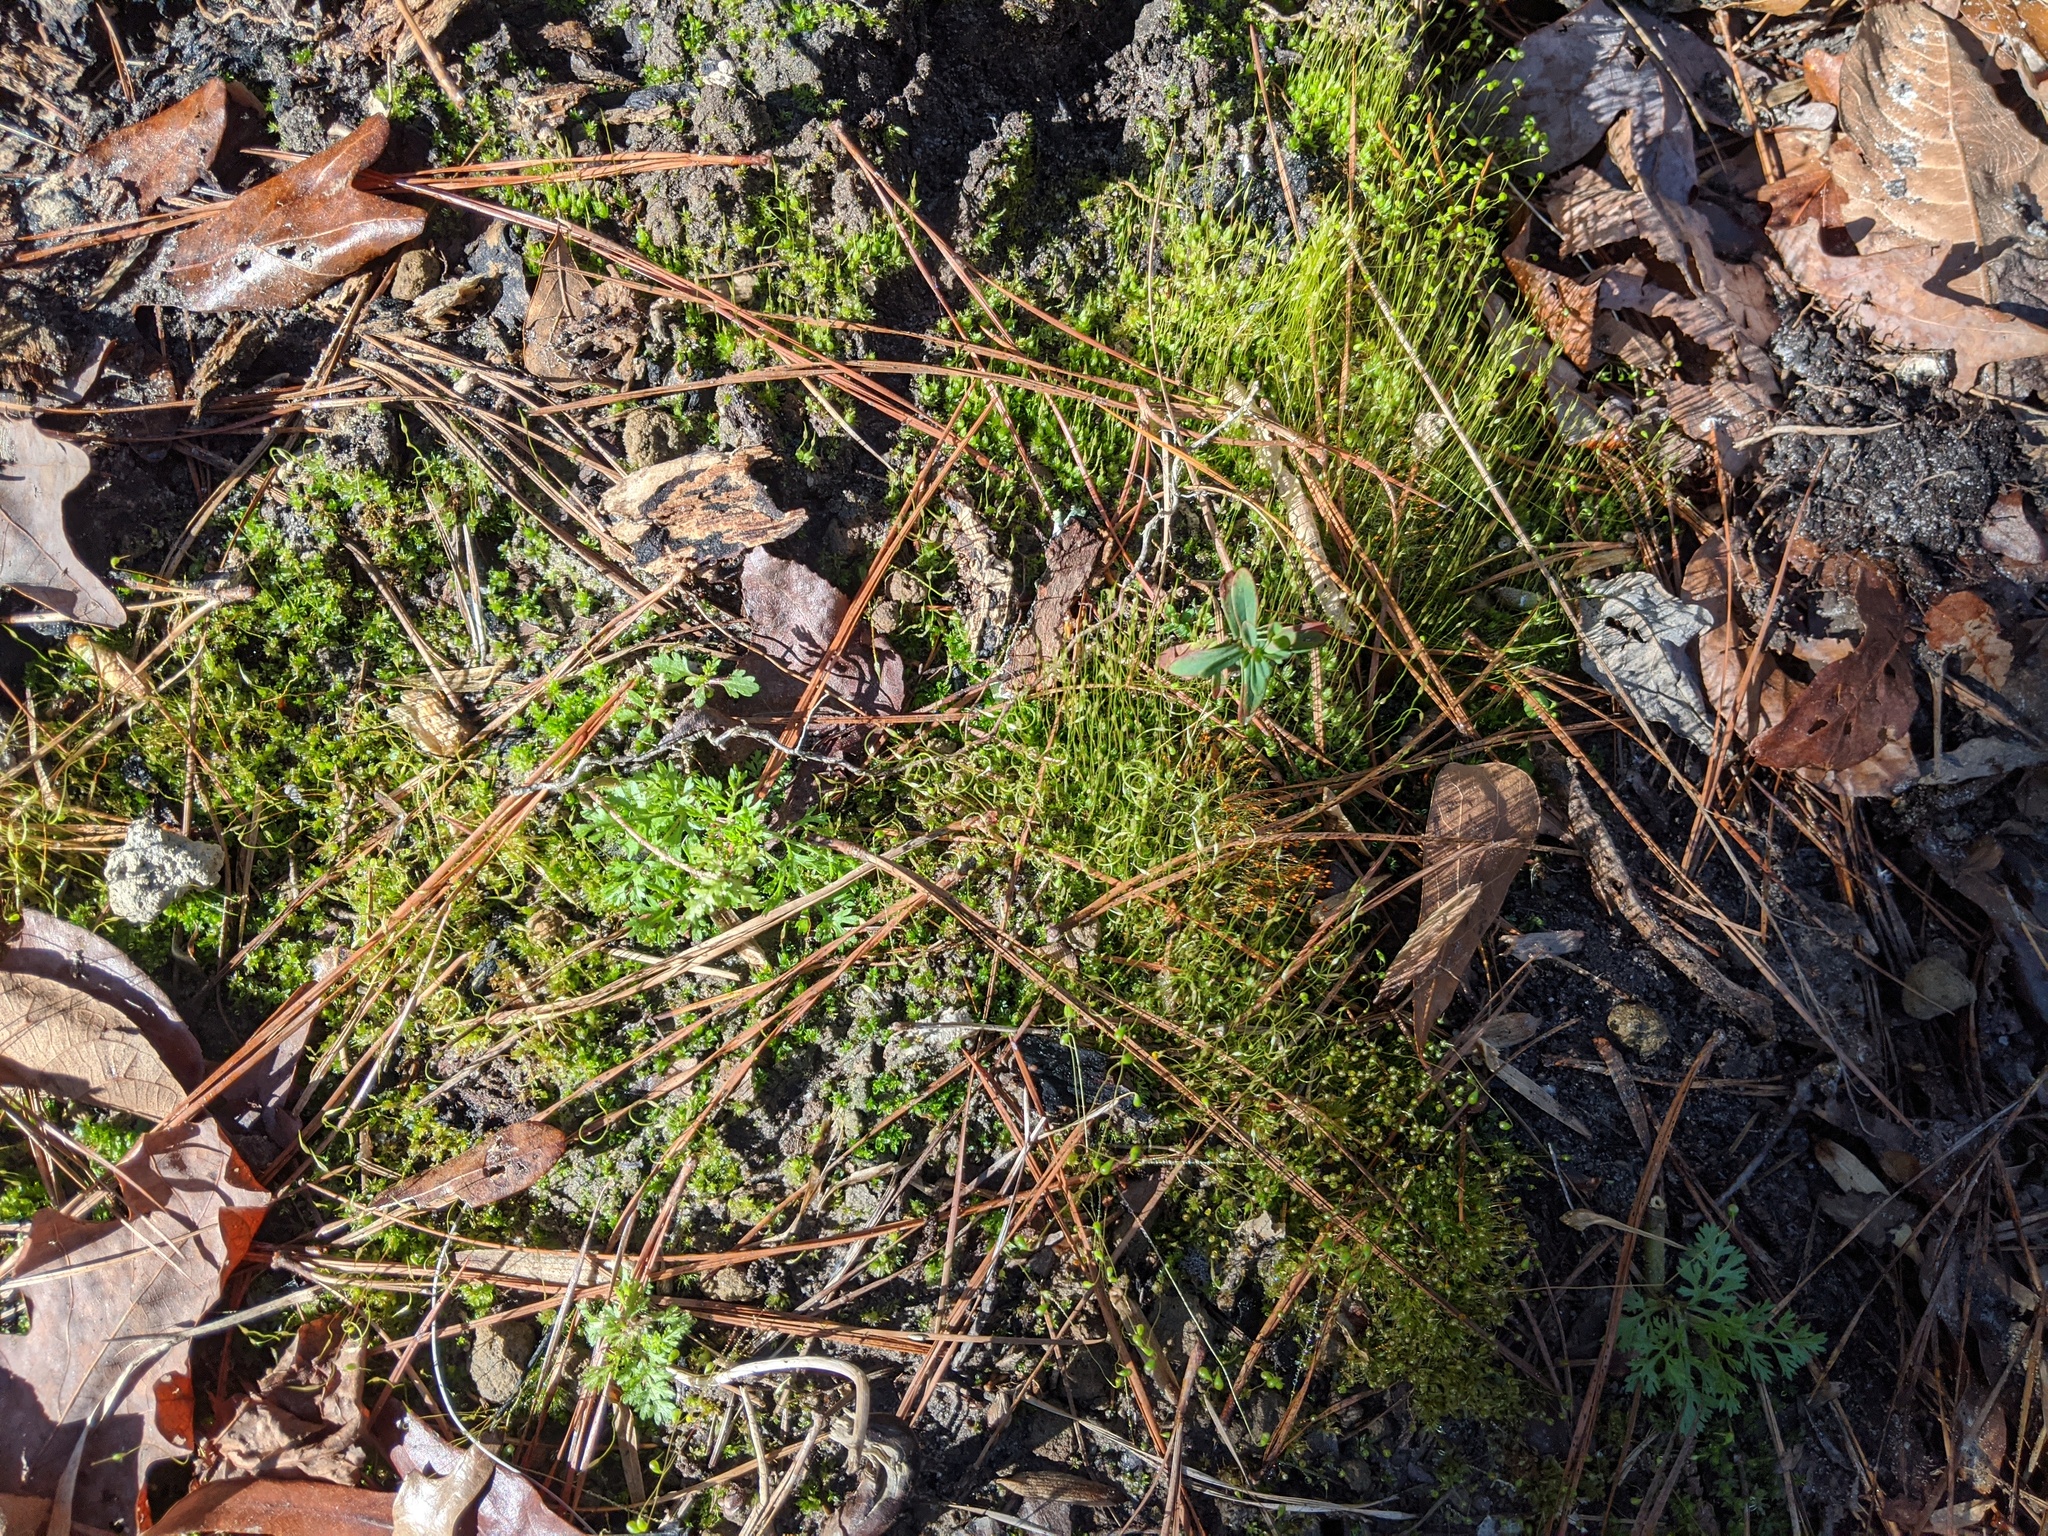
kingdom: Plantae
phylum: Bryophyta
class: Bryopsida
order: Funariales
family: Funariaceae
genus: Funaria
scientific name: Funaria hygrometrica
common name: Common cord moss
